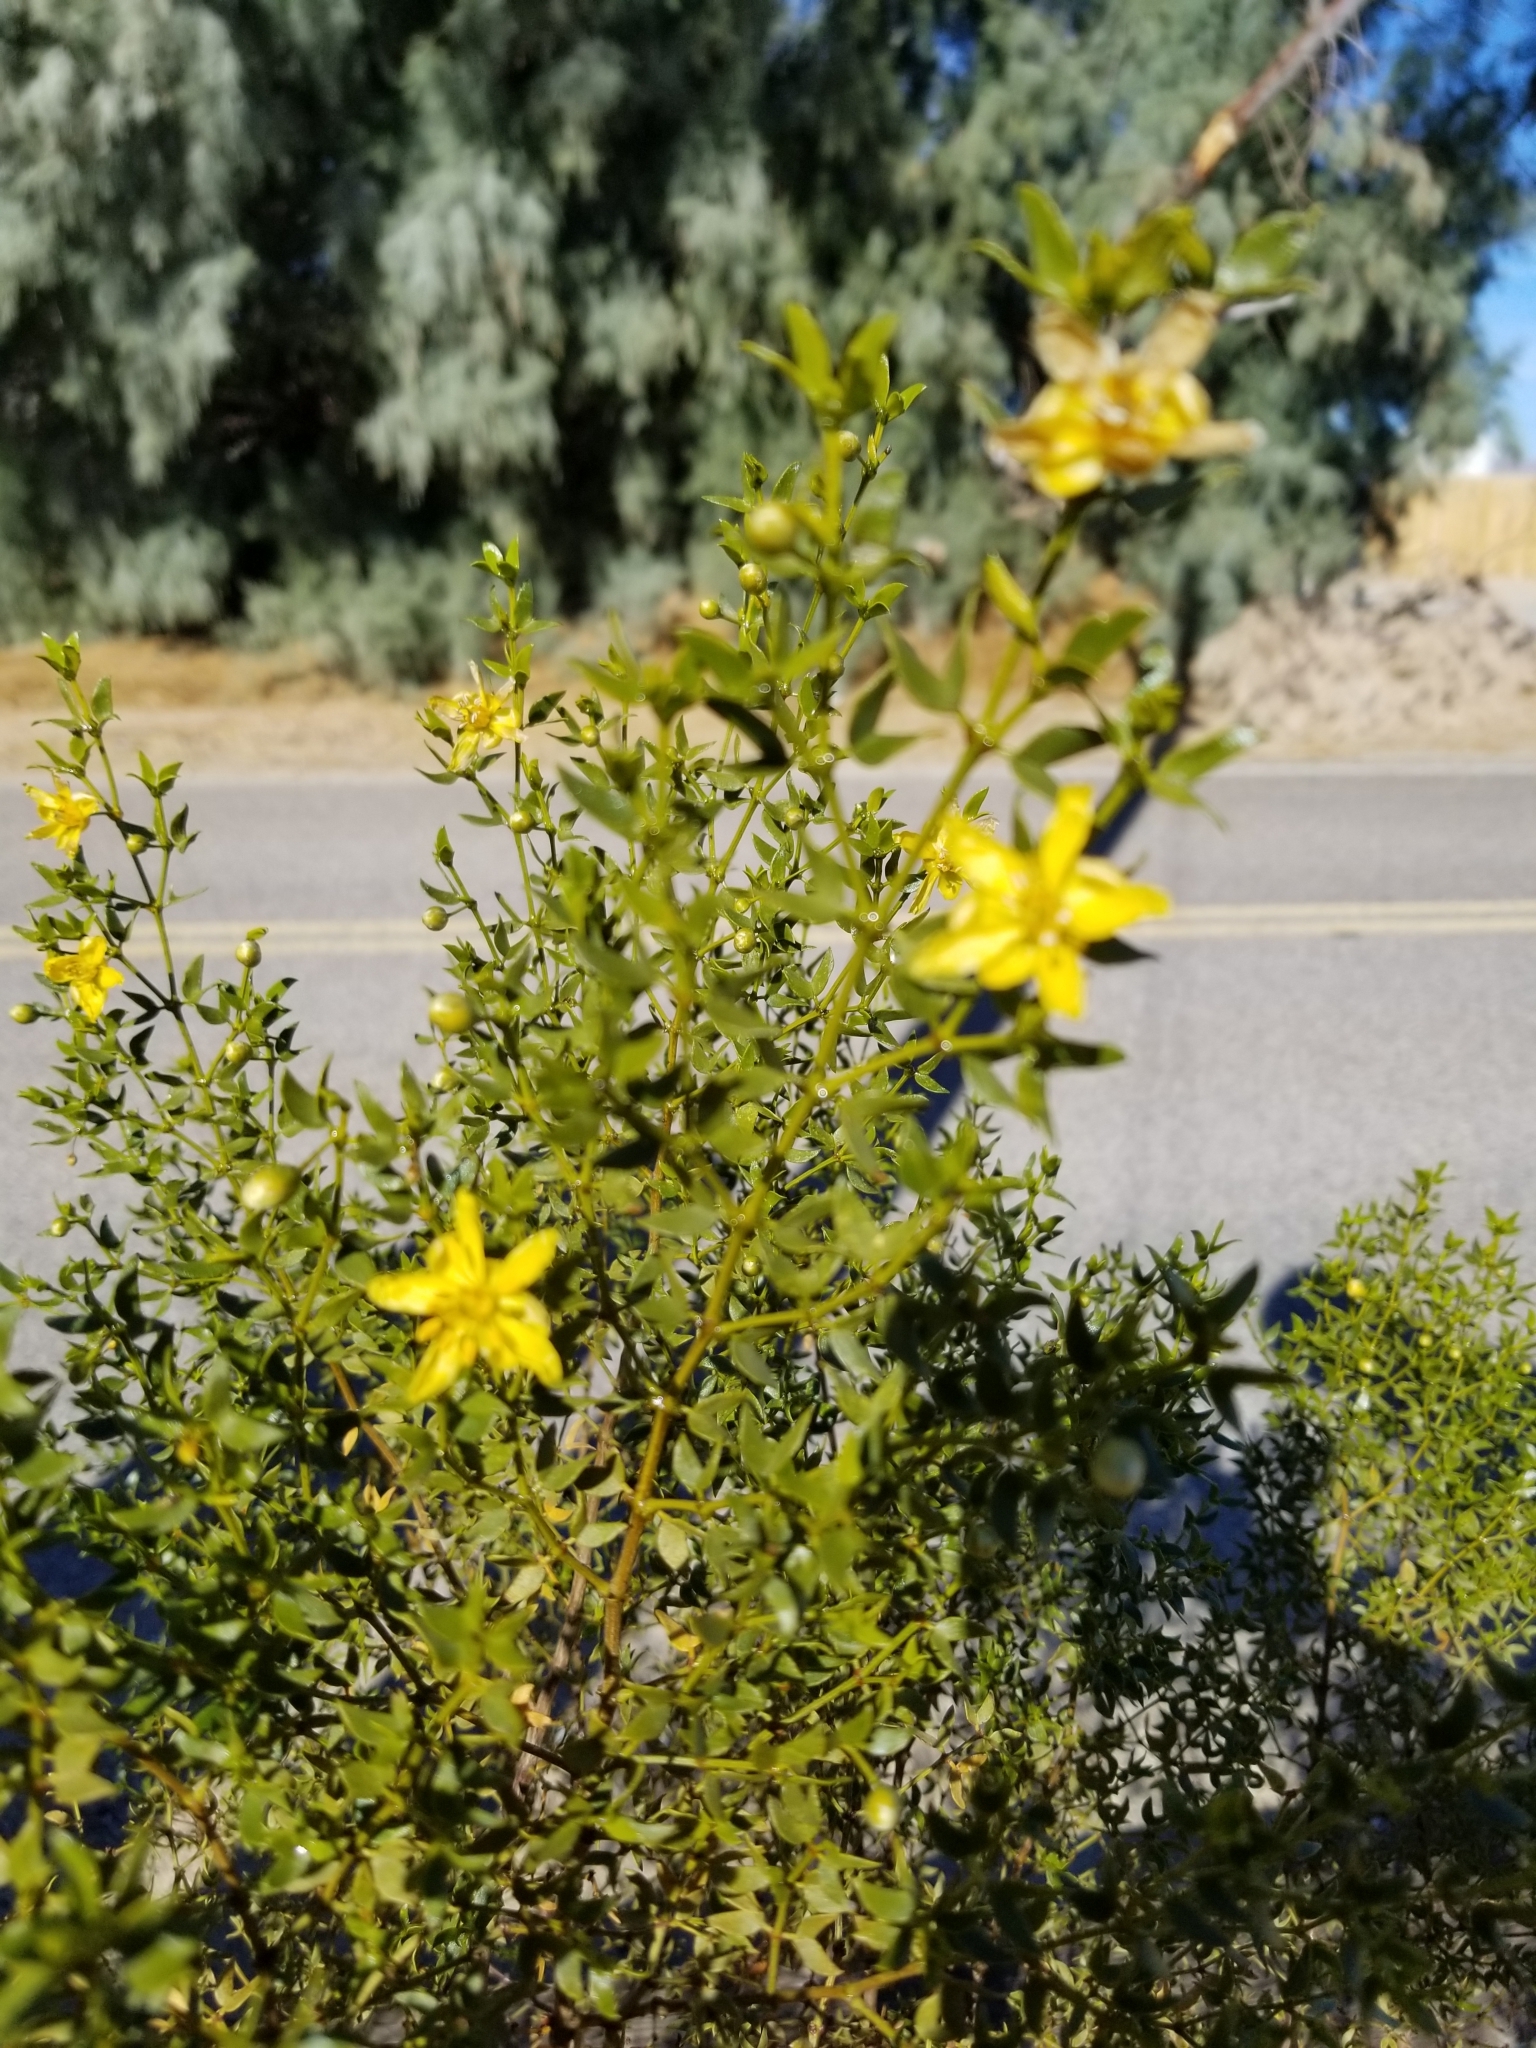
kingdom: Plantae
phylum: Tracheophyta
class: Magnoliopsida
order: Zygophyllales
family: Zygophyllaceae
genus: Larrea
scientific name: Larrea tridentata
